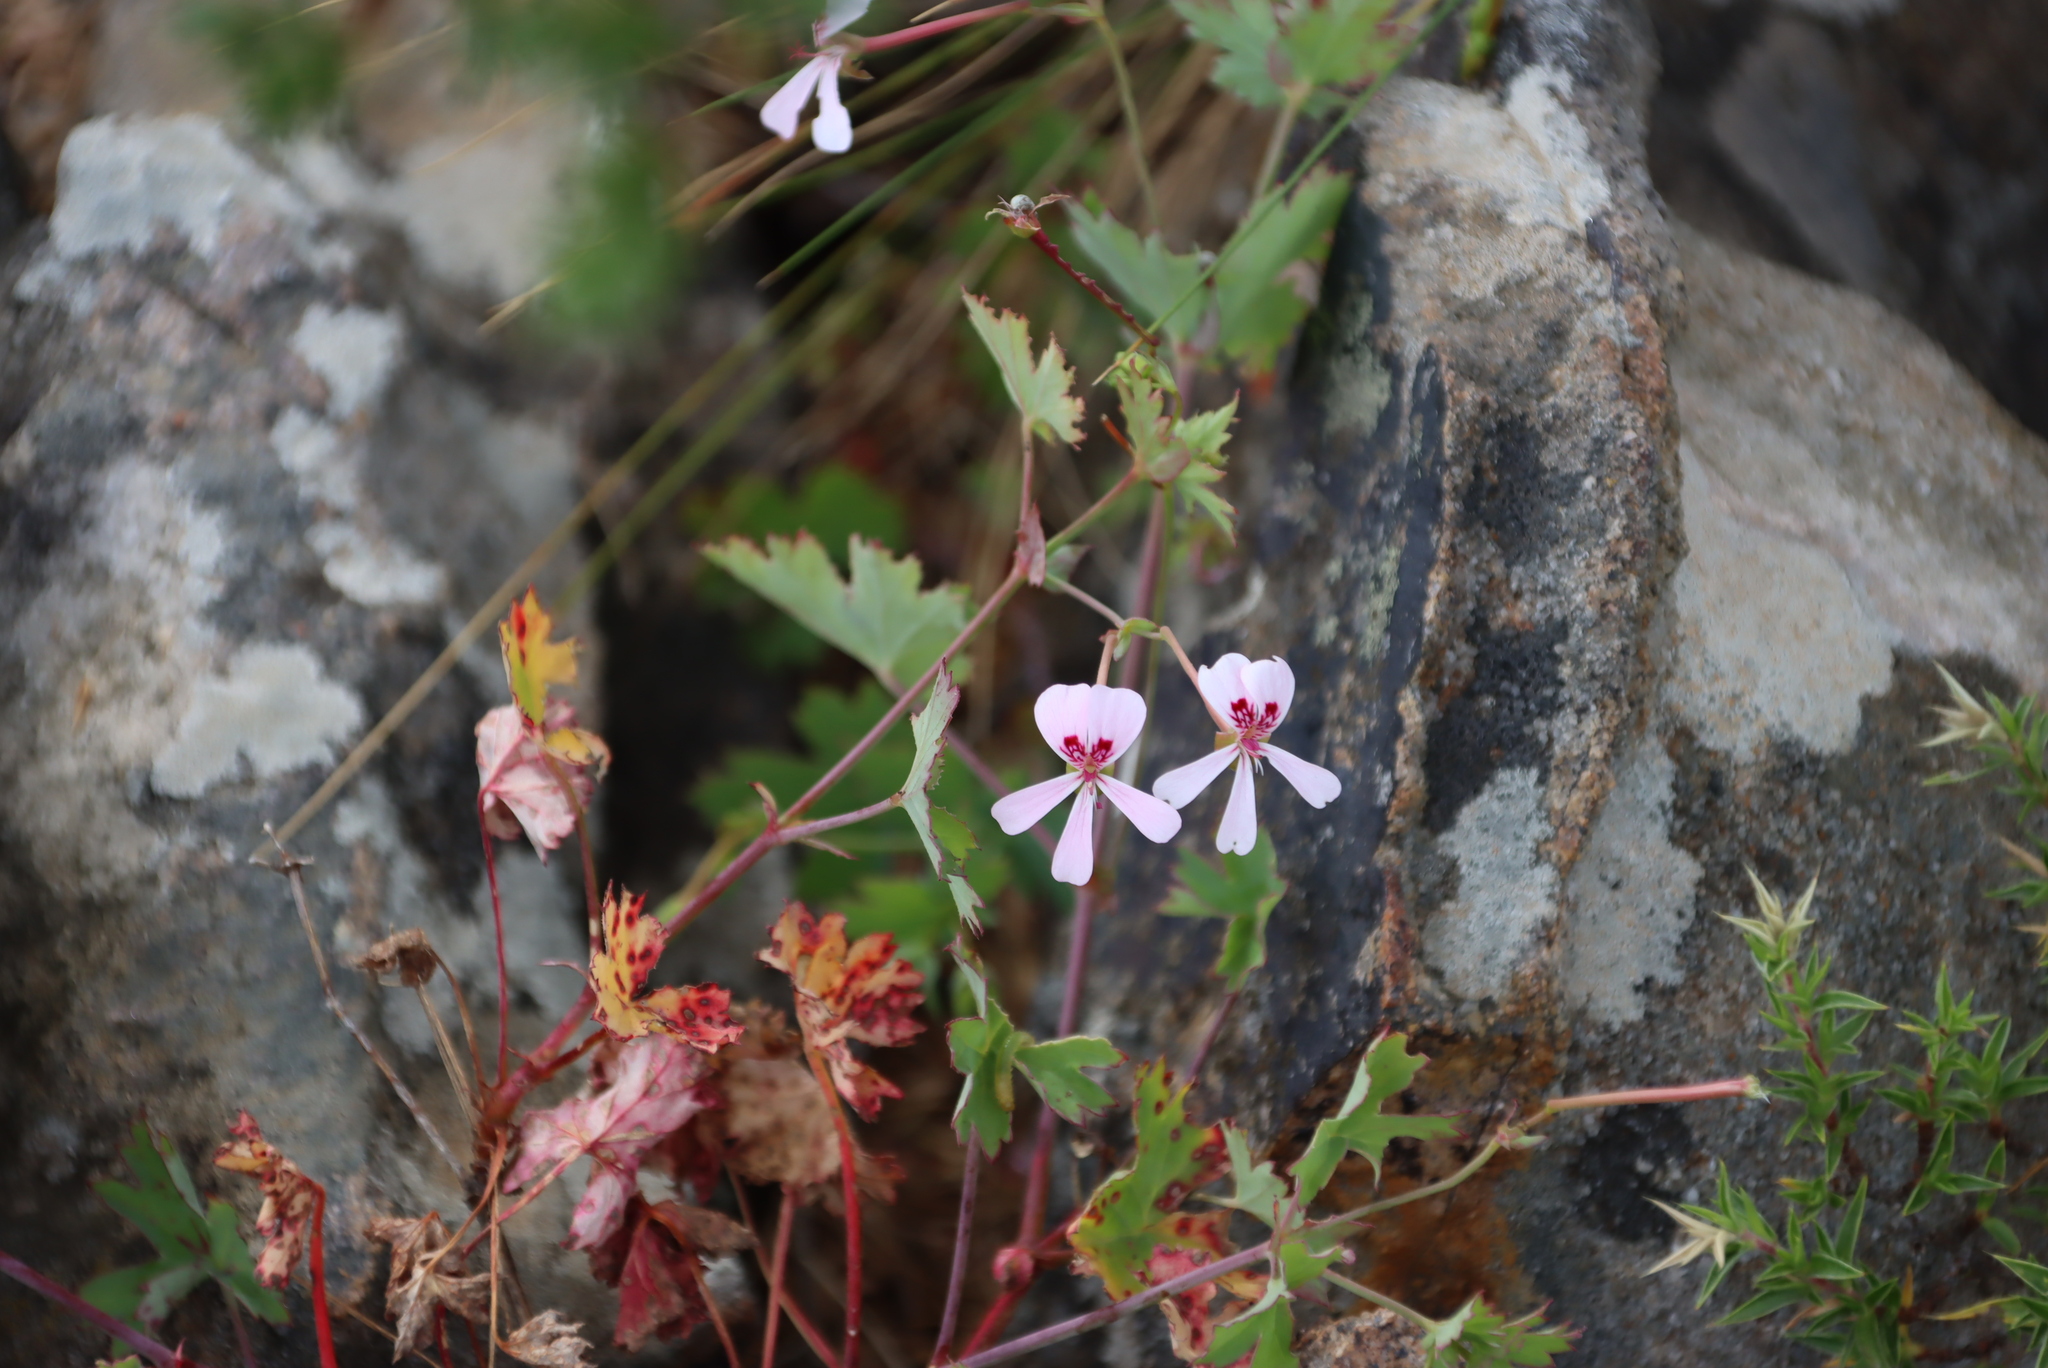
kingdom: Plantae
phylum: Tracheophyta
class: Magnoliopsida
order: Geraniales
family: Geraniaceae
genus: Pelargonium
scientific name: Pelargonium patulum
